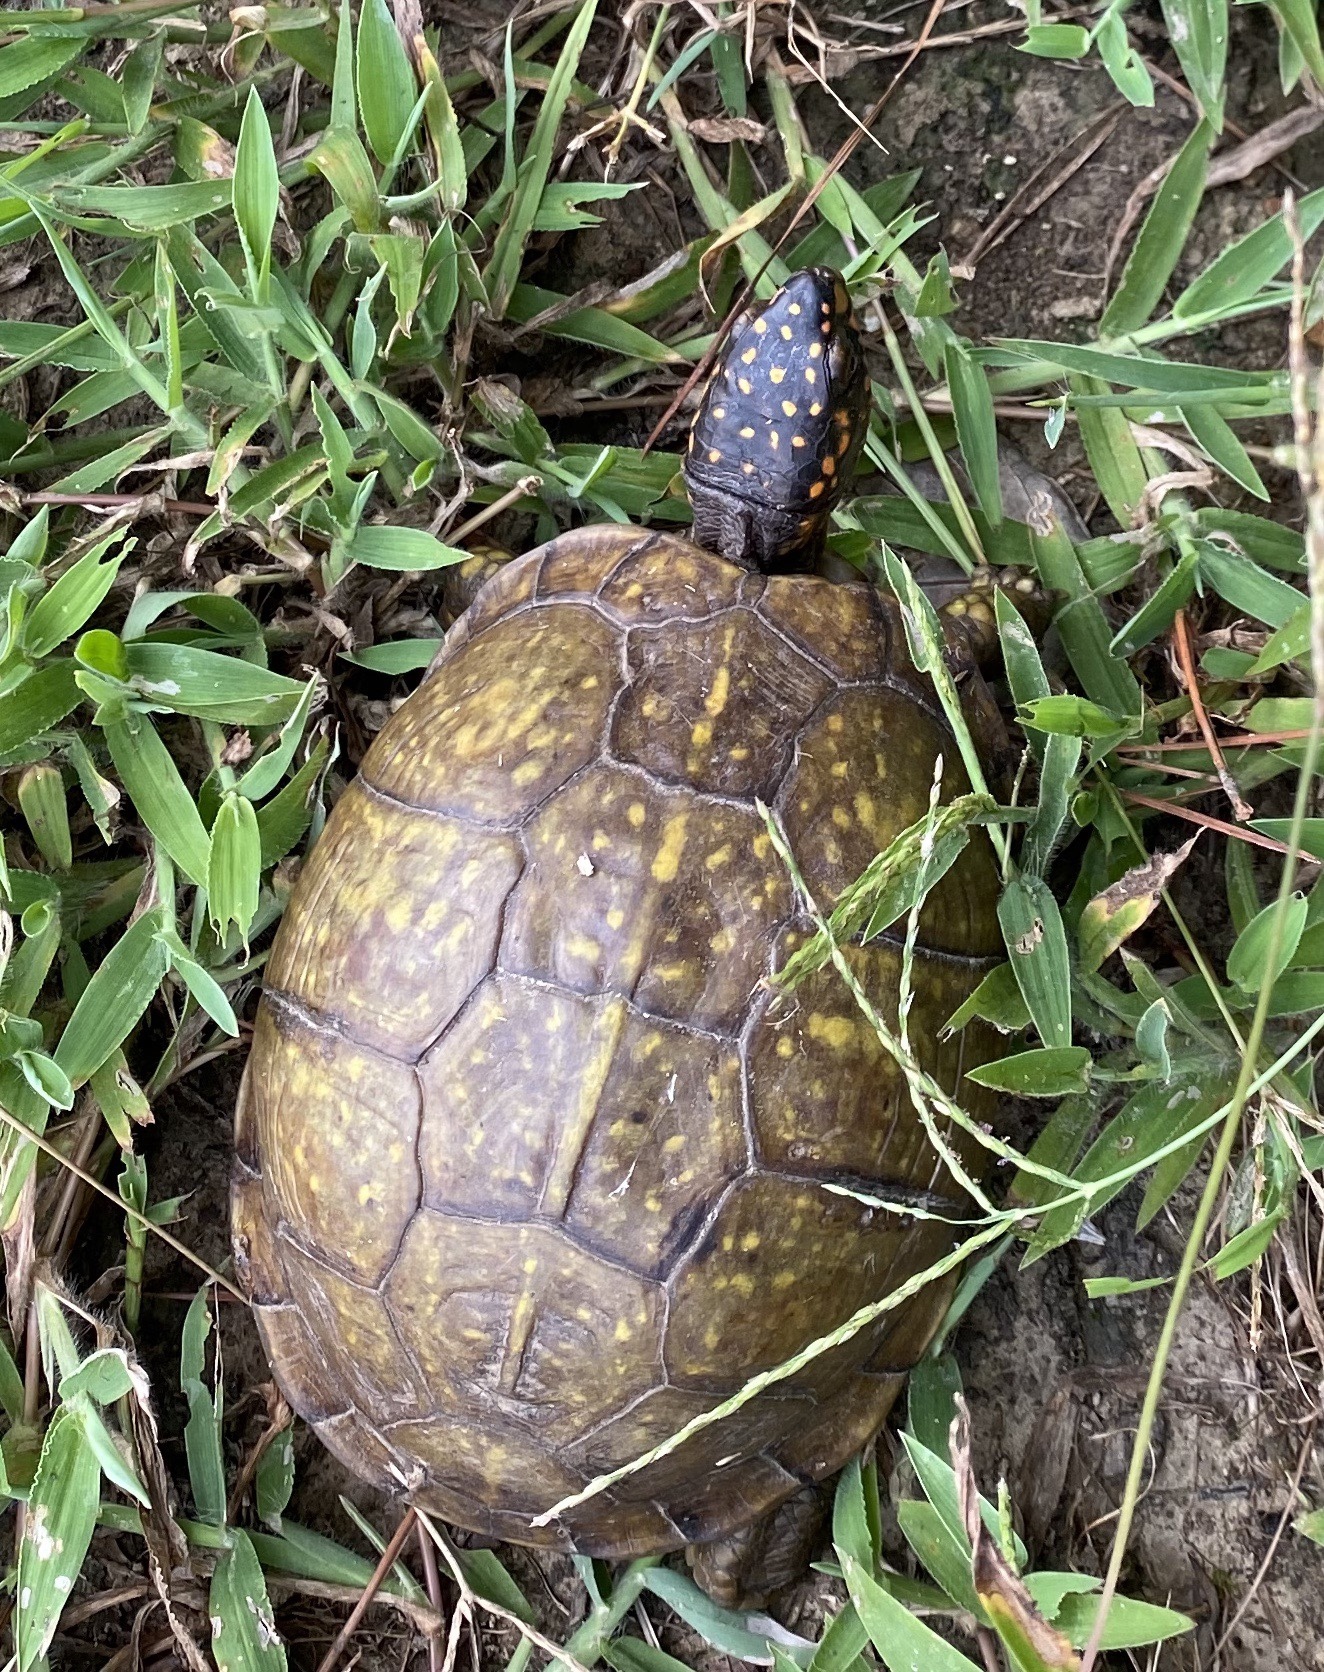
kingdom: Animalia
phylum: Chordata
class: Testudines
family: Emydidae
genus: Terrapene
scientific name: Terrapene carolina
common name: Common box turtle
